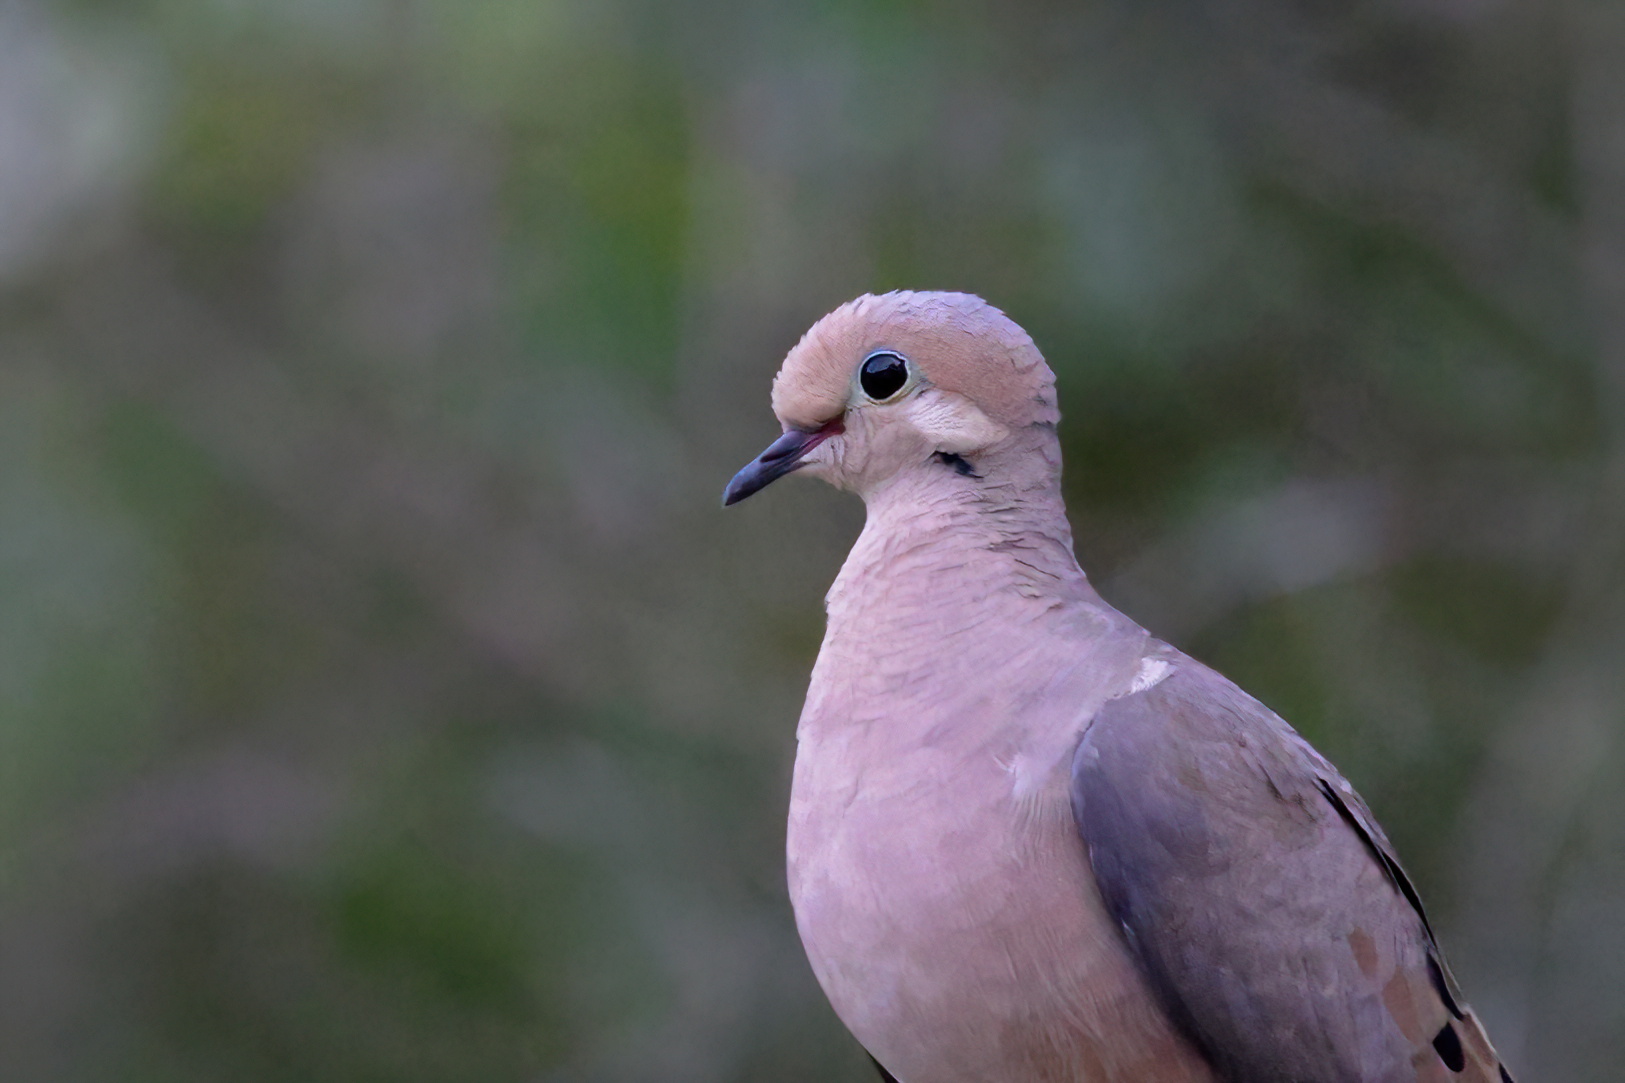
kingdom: Animalia
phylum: Chordata
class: Aves
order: Columbiformes
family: Columbidae
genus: Zenaida
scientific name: Zenaida macroura
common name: Mourning dove
